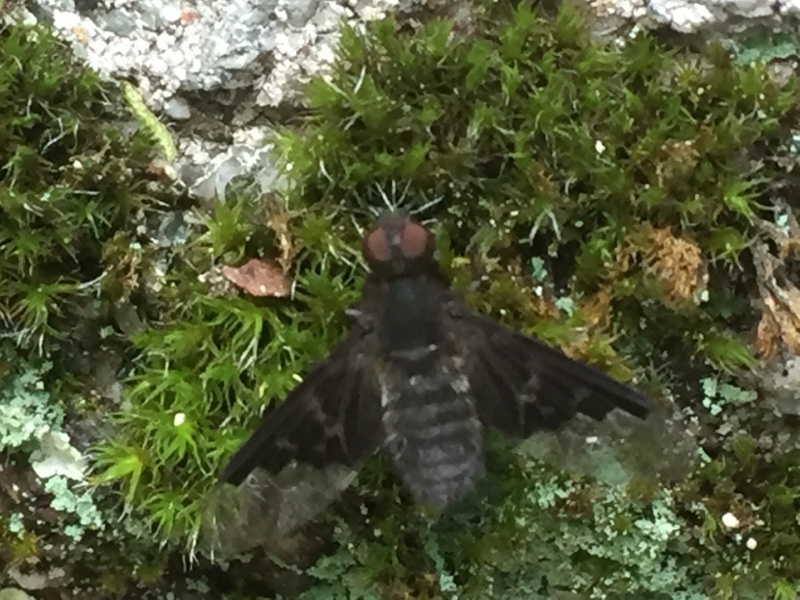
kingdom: Animalia
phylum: Arthropoda
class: Insecta
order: Diptera
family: Bombyliidae
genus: Hemipenthes
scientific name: Hemipenthes morio
